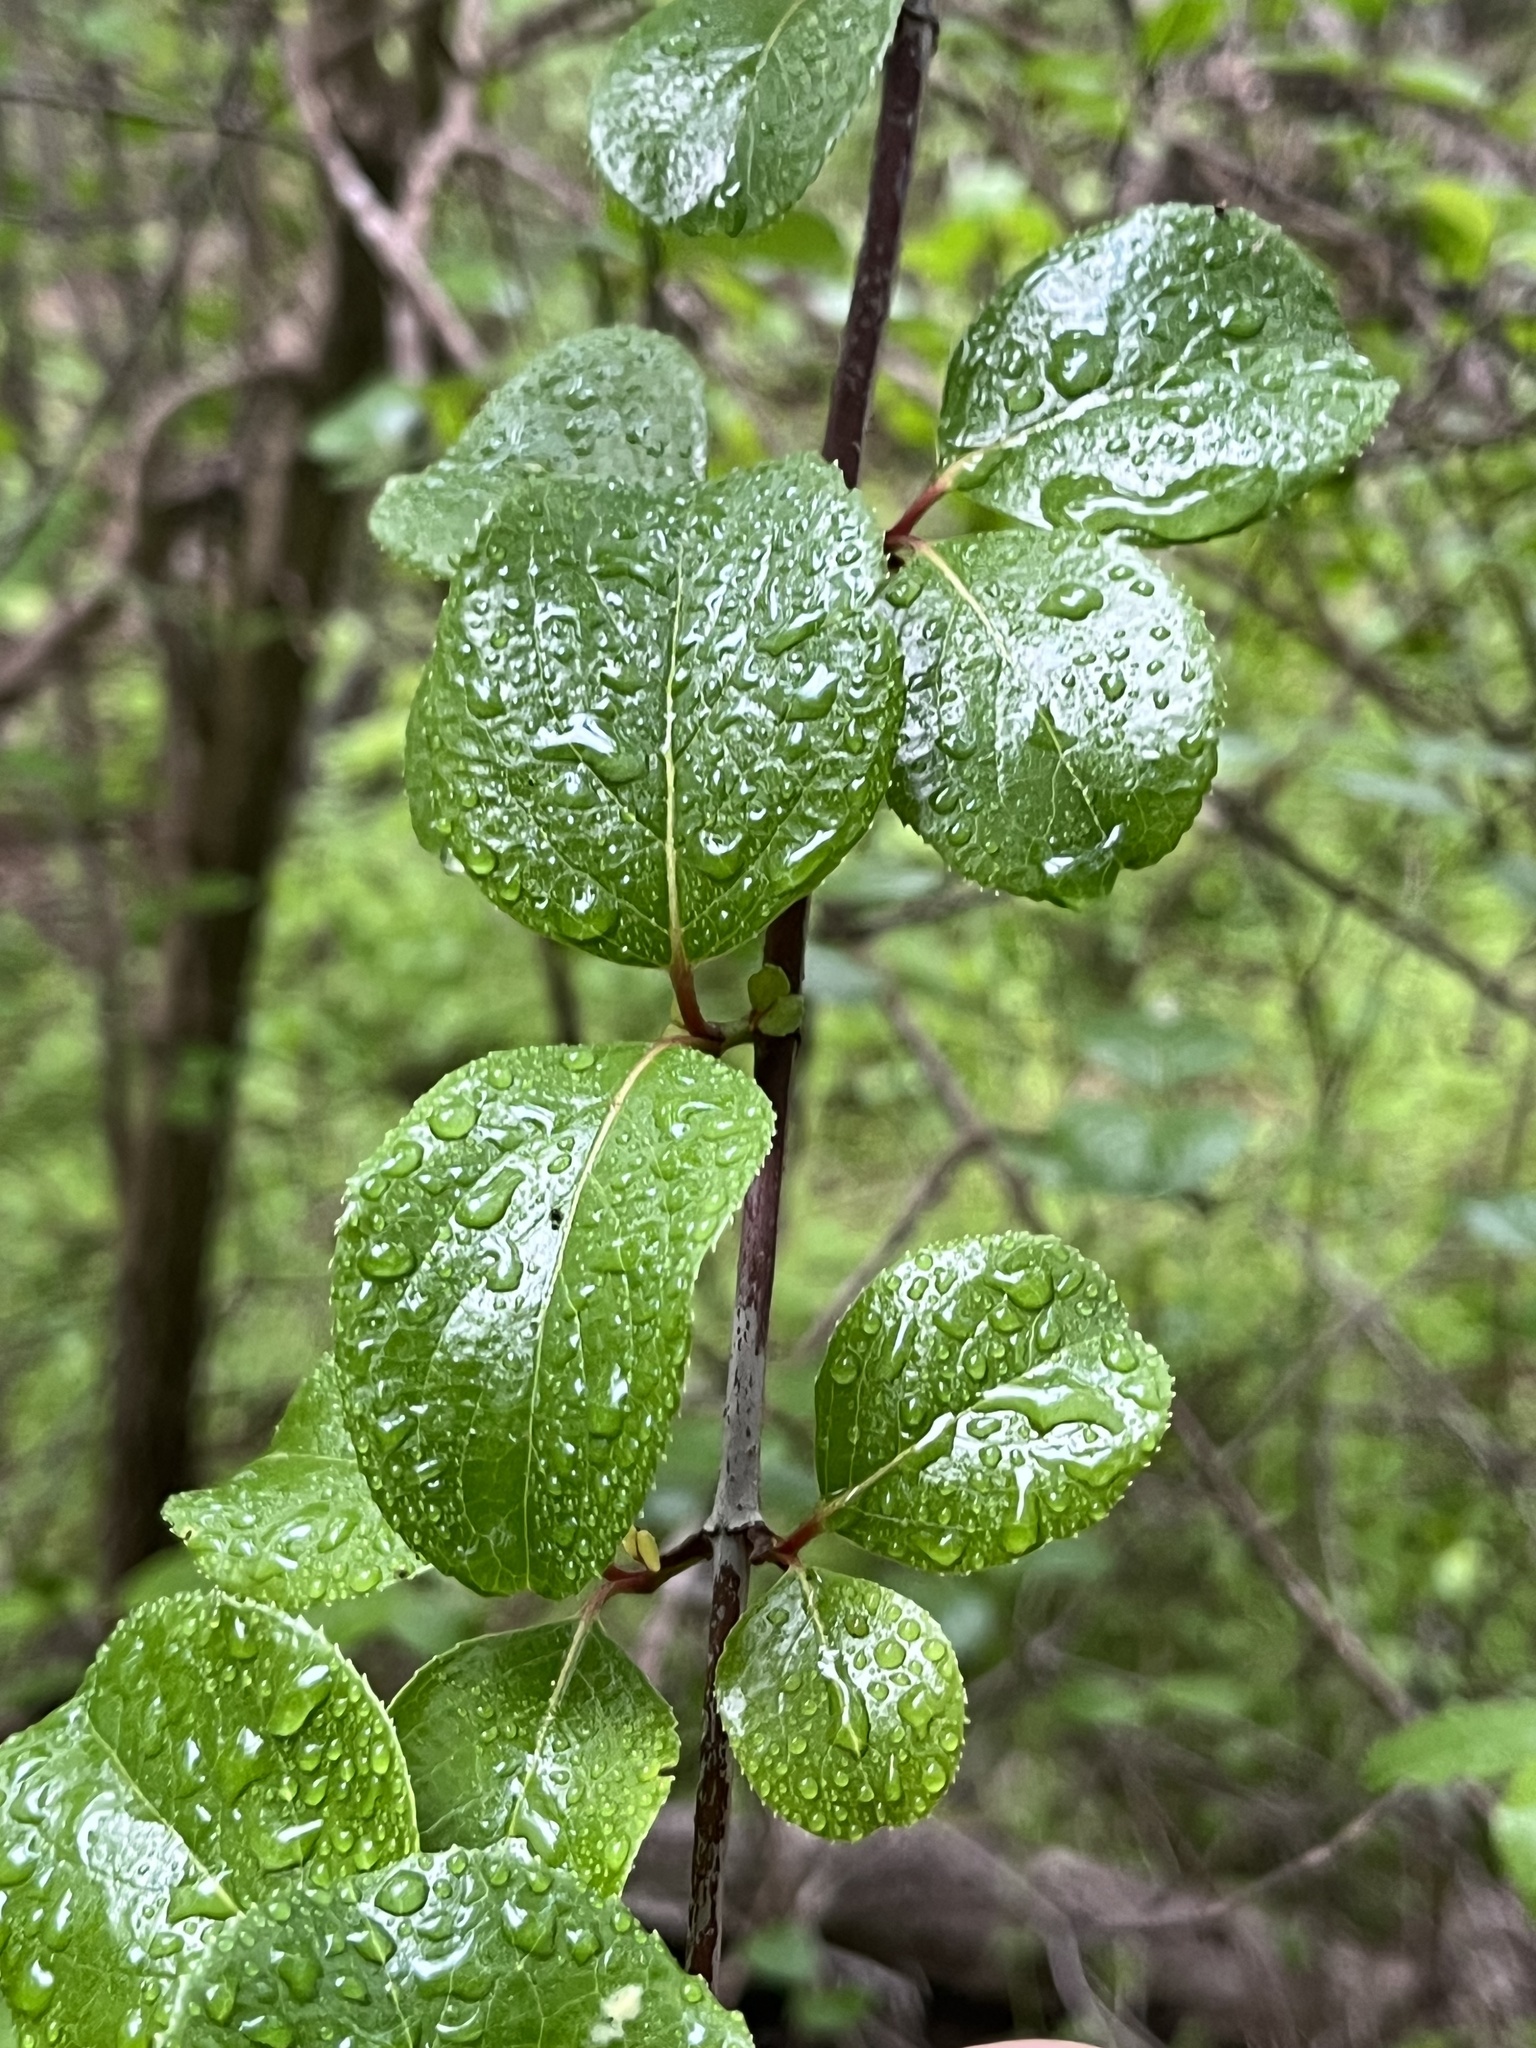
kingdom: Plantae
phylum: Tracheophyta
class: Magnoliopsida
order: Dipsacales
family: Viburnaceae
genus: Viburnum
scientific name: Viburnum rufidulum
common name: Blue haw
